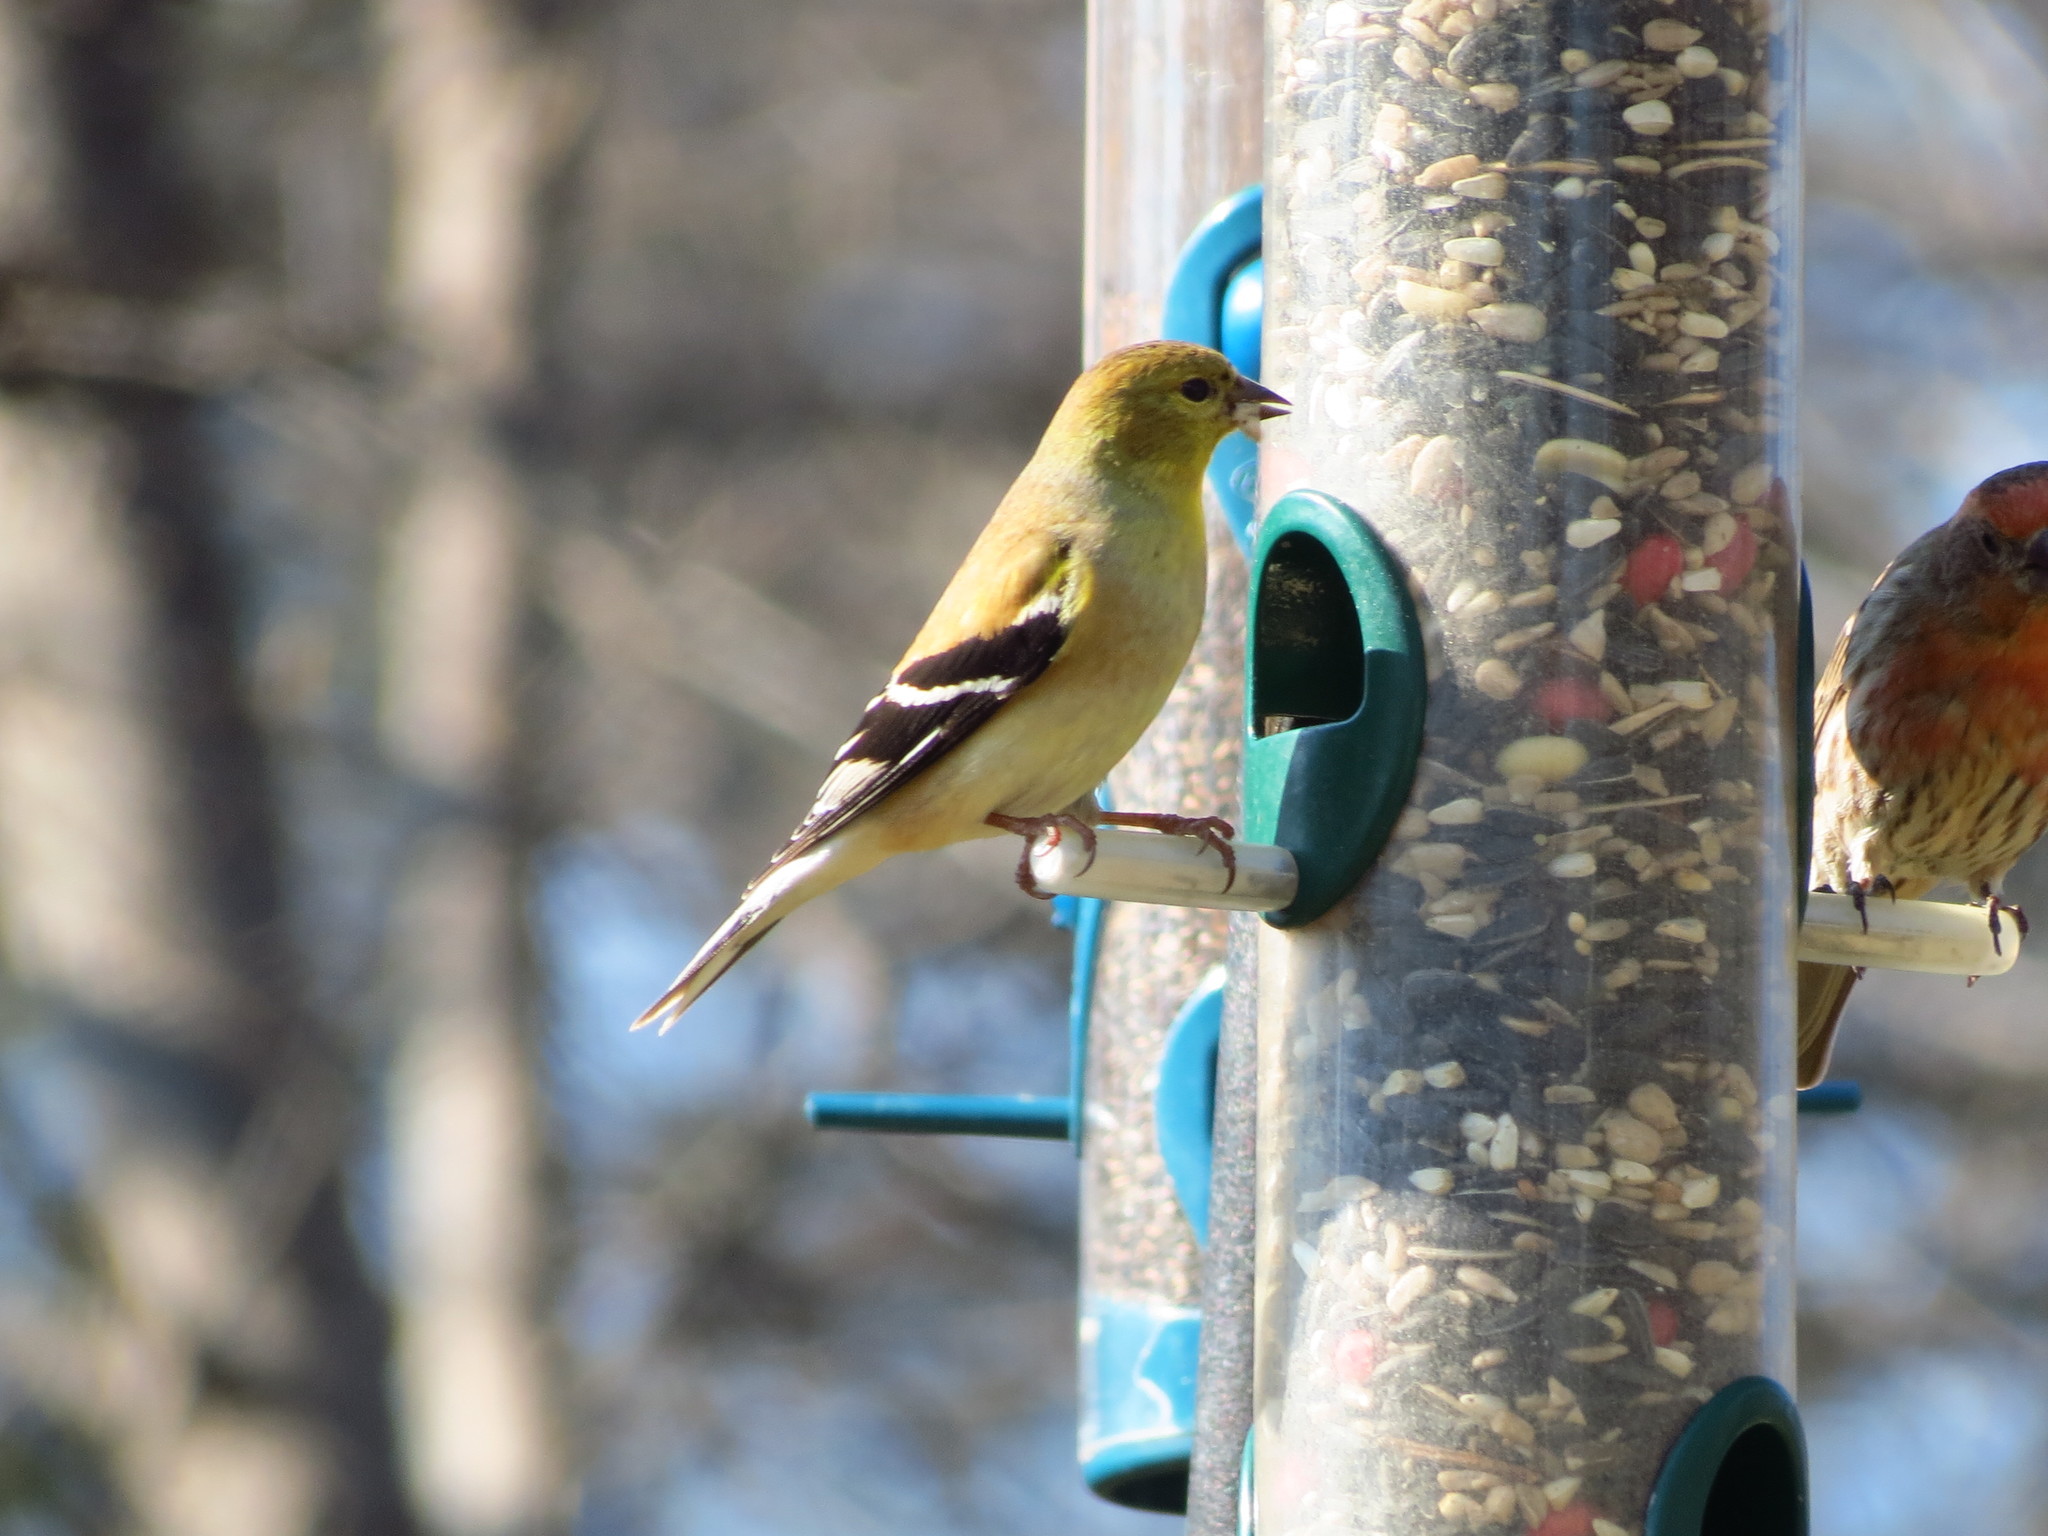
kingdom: Animalia
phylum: Chordata
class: Aves
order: Passeriformes
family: Fringillidae
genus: Spinus
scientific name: Spinus tristis
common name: American goldfinch
